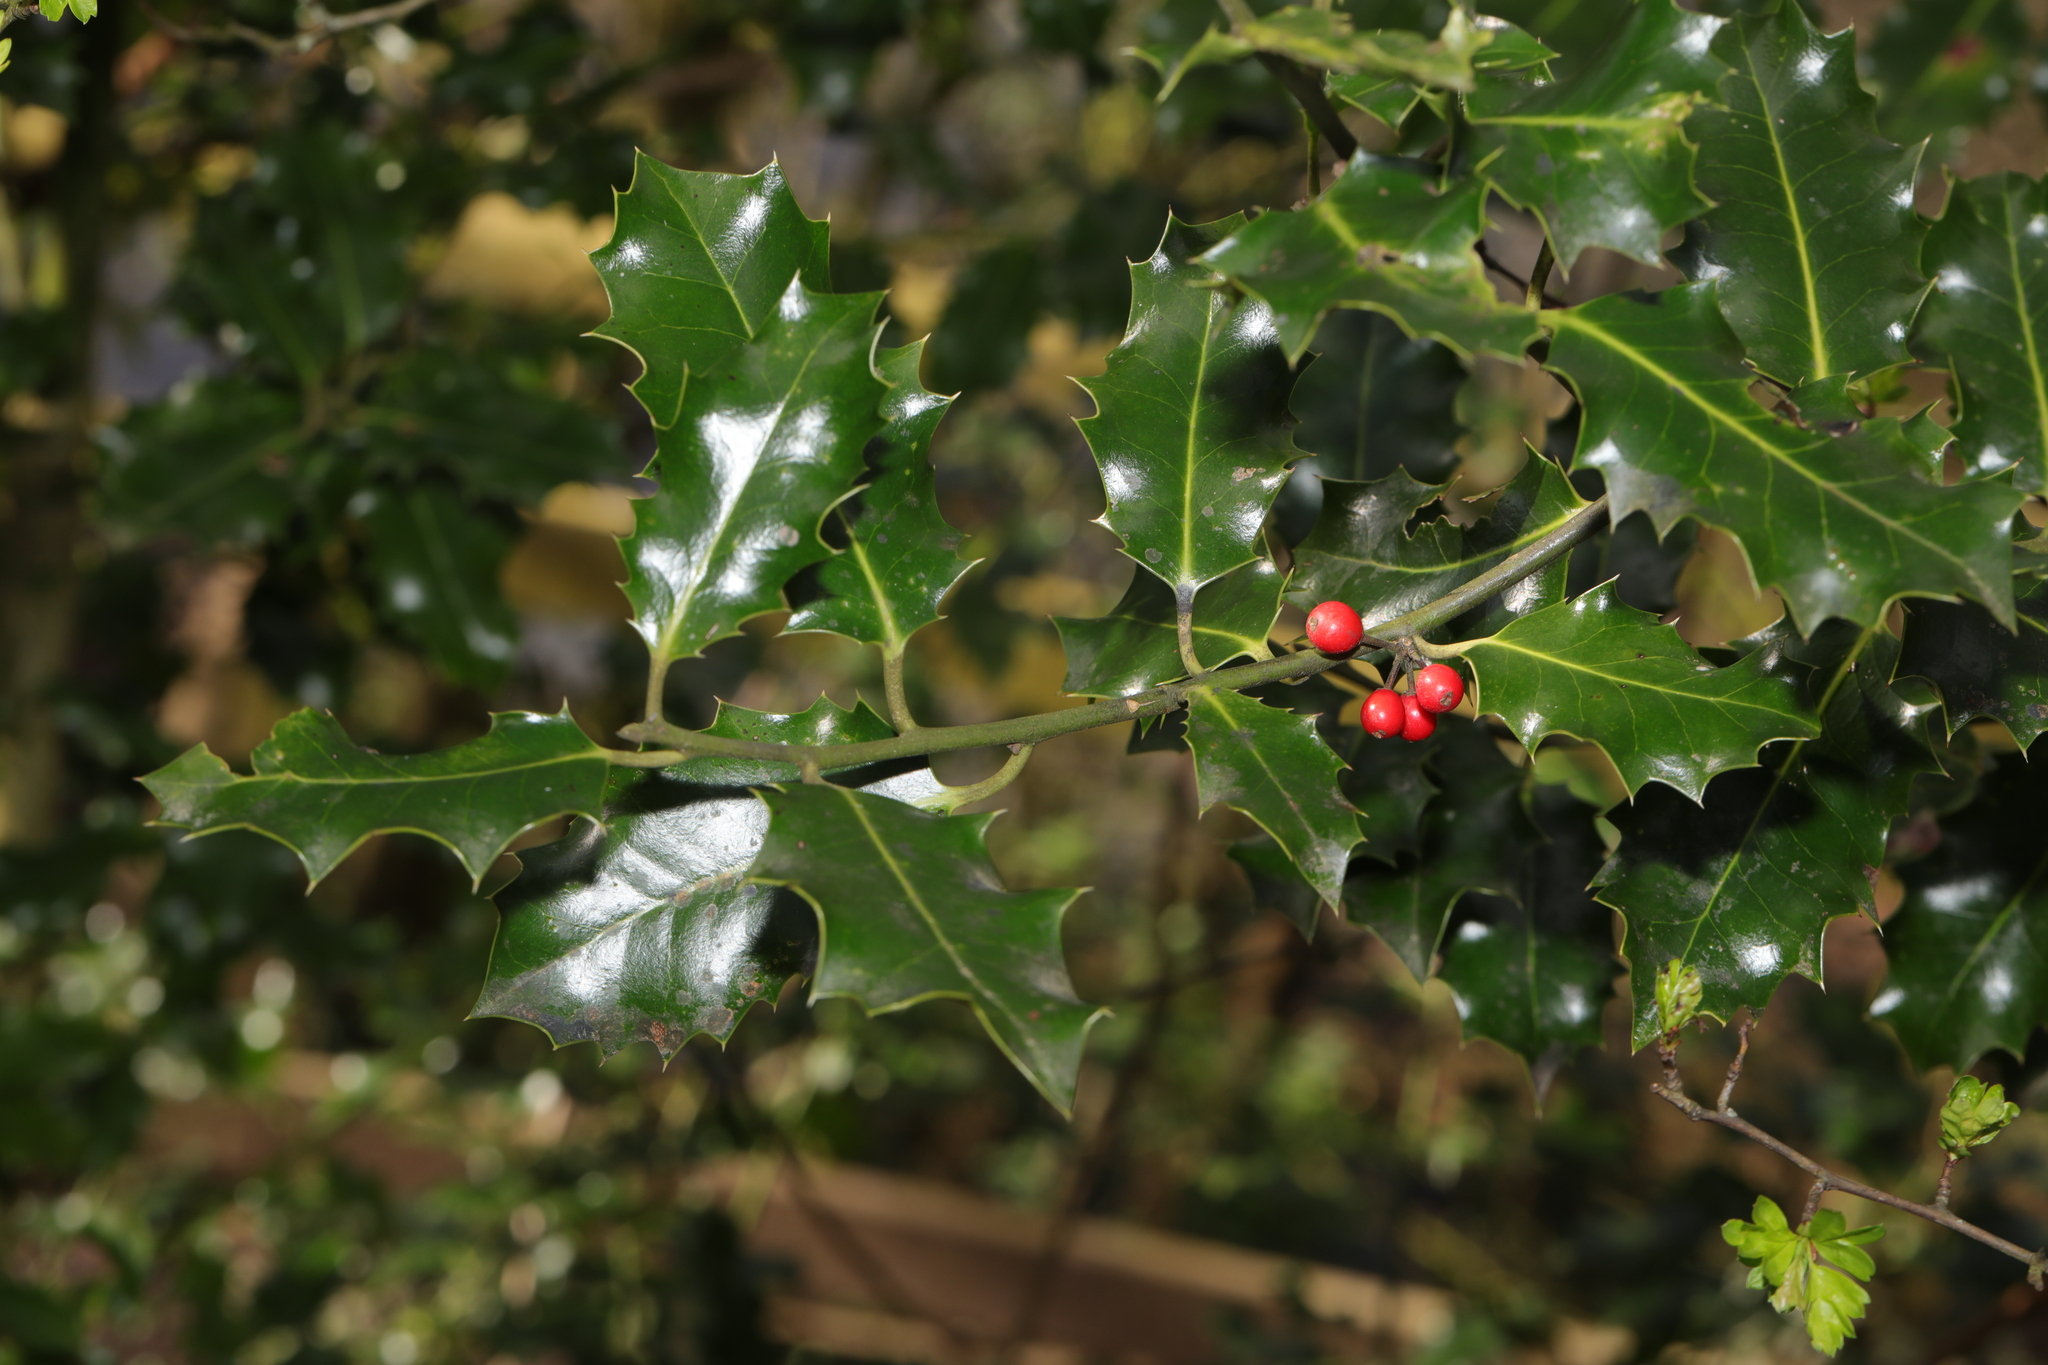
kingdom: Plantae
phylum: Tracheophyta
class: Magnoliopsida
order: Aquifoliales
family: Aquifoliaceae
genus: Ilex
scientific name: Ilex aquifolium
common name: English holly
